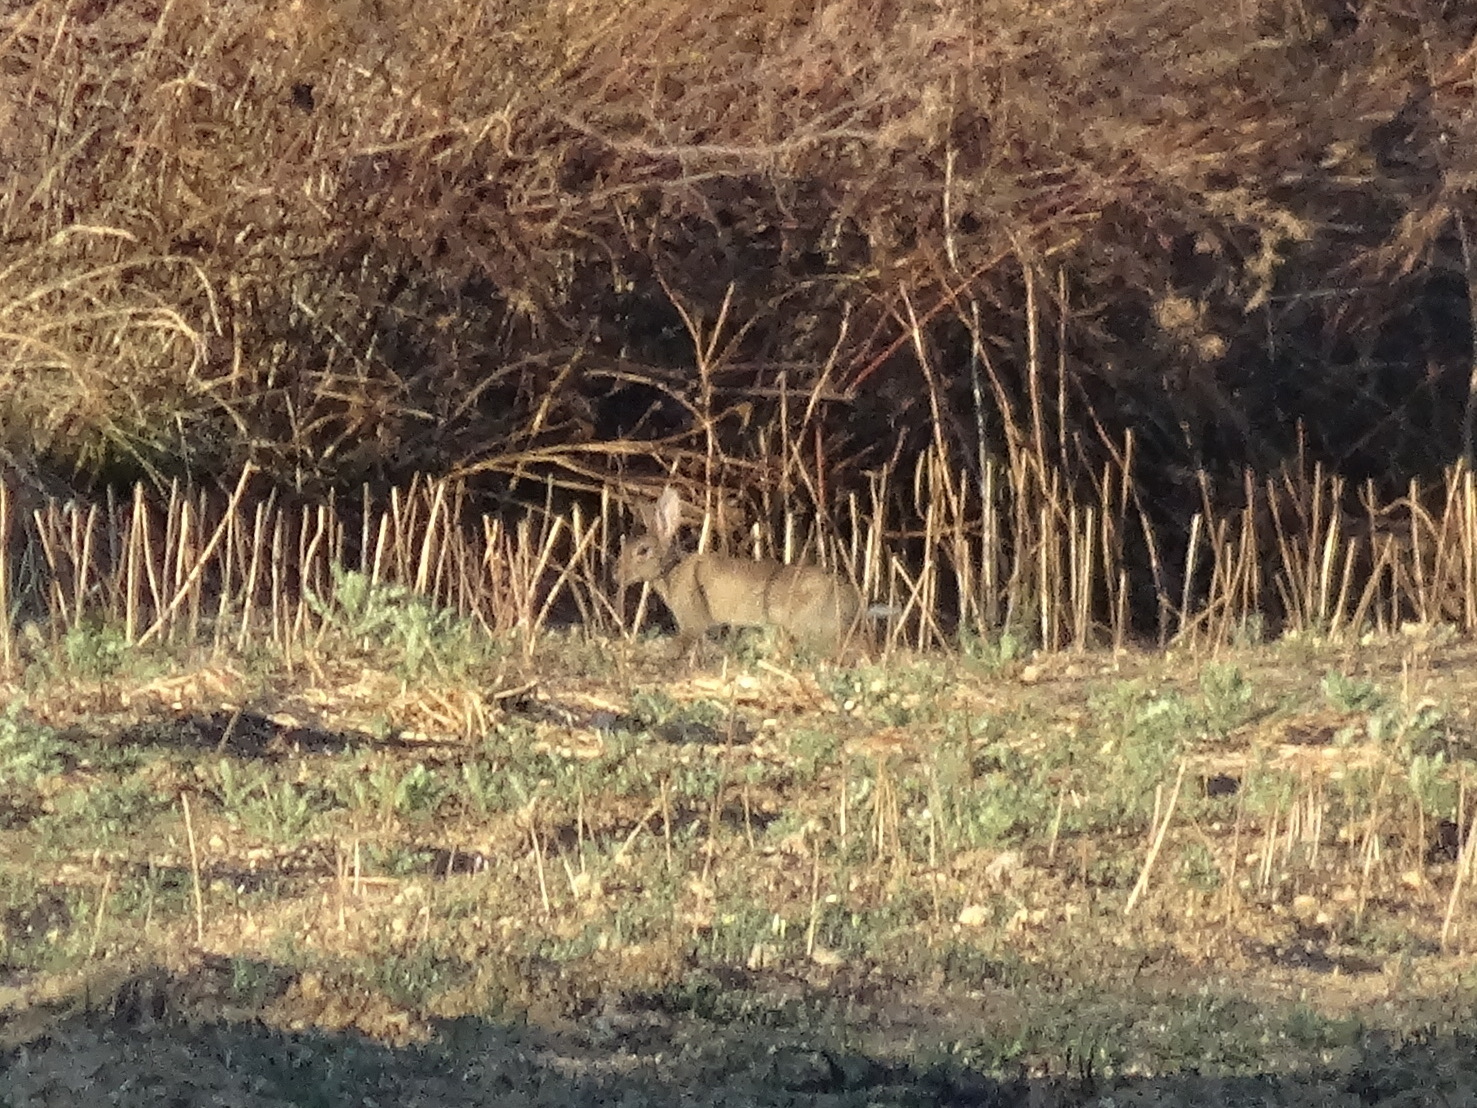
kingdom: Animalia
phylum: Chordata
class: Mammalia
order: Lagomorpha
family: Leporidae
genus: Oryctolagus
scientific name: Oryctolagus cuniculus
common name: European rabbit
